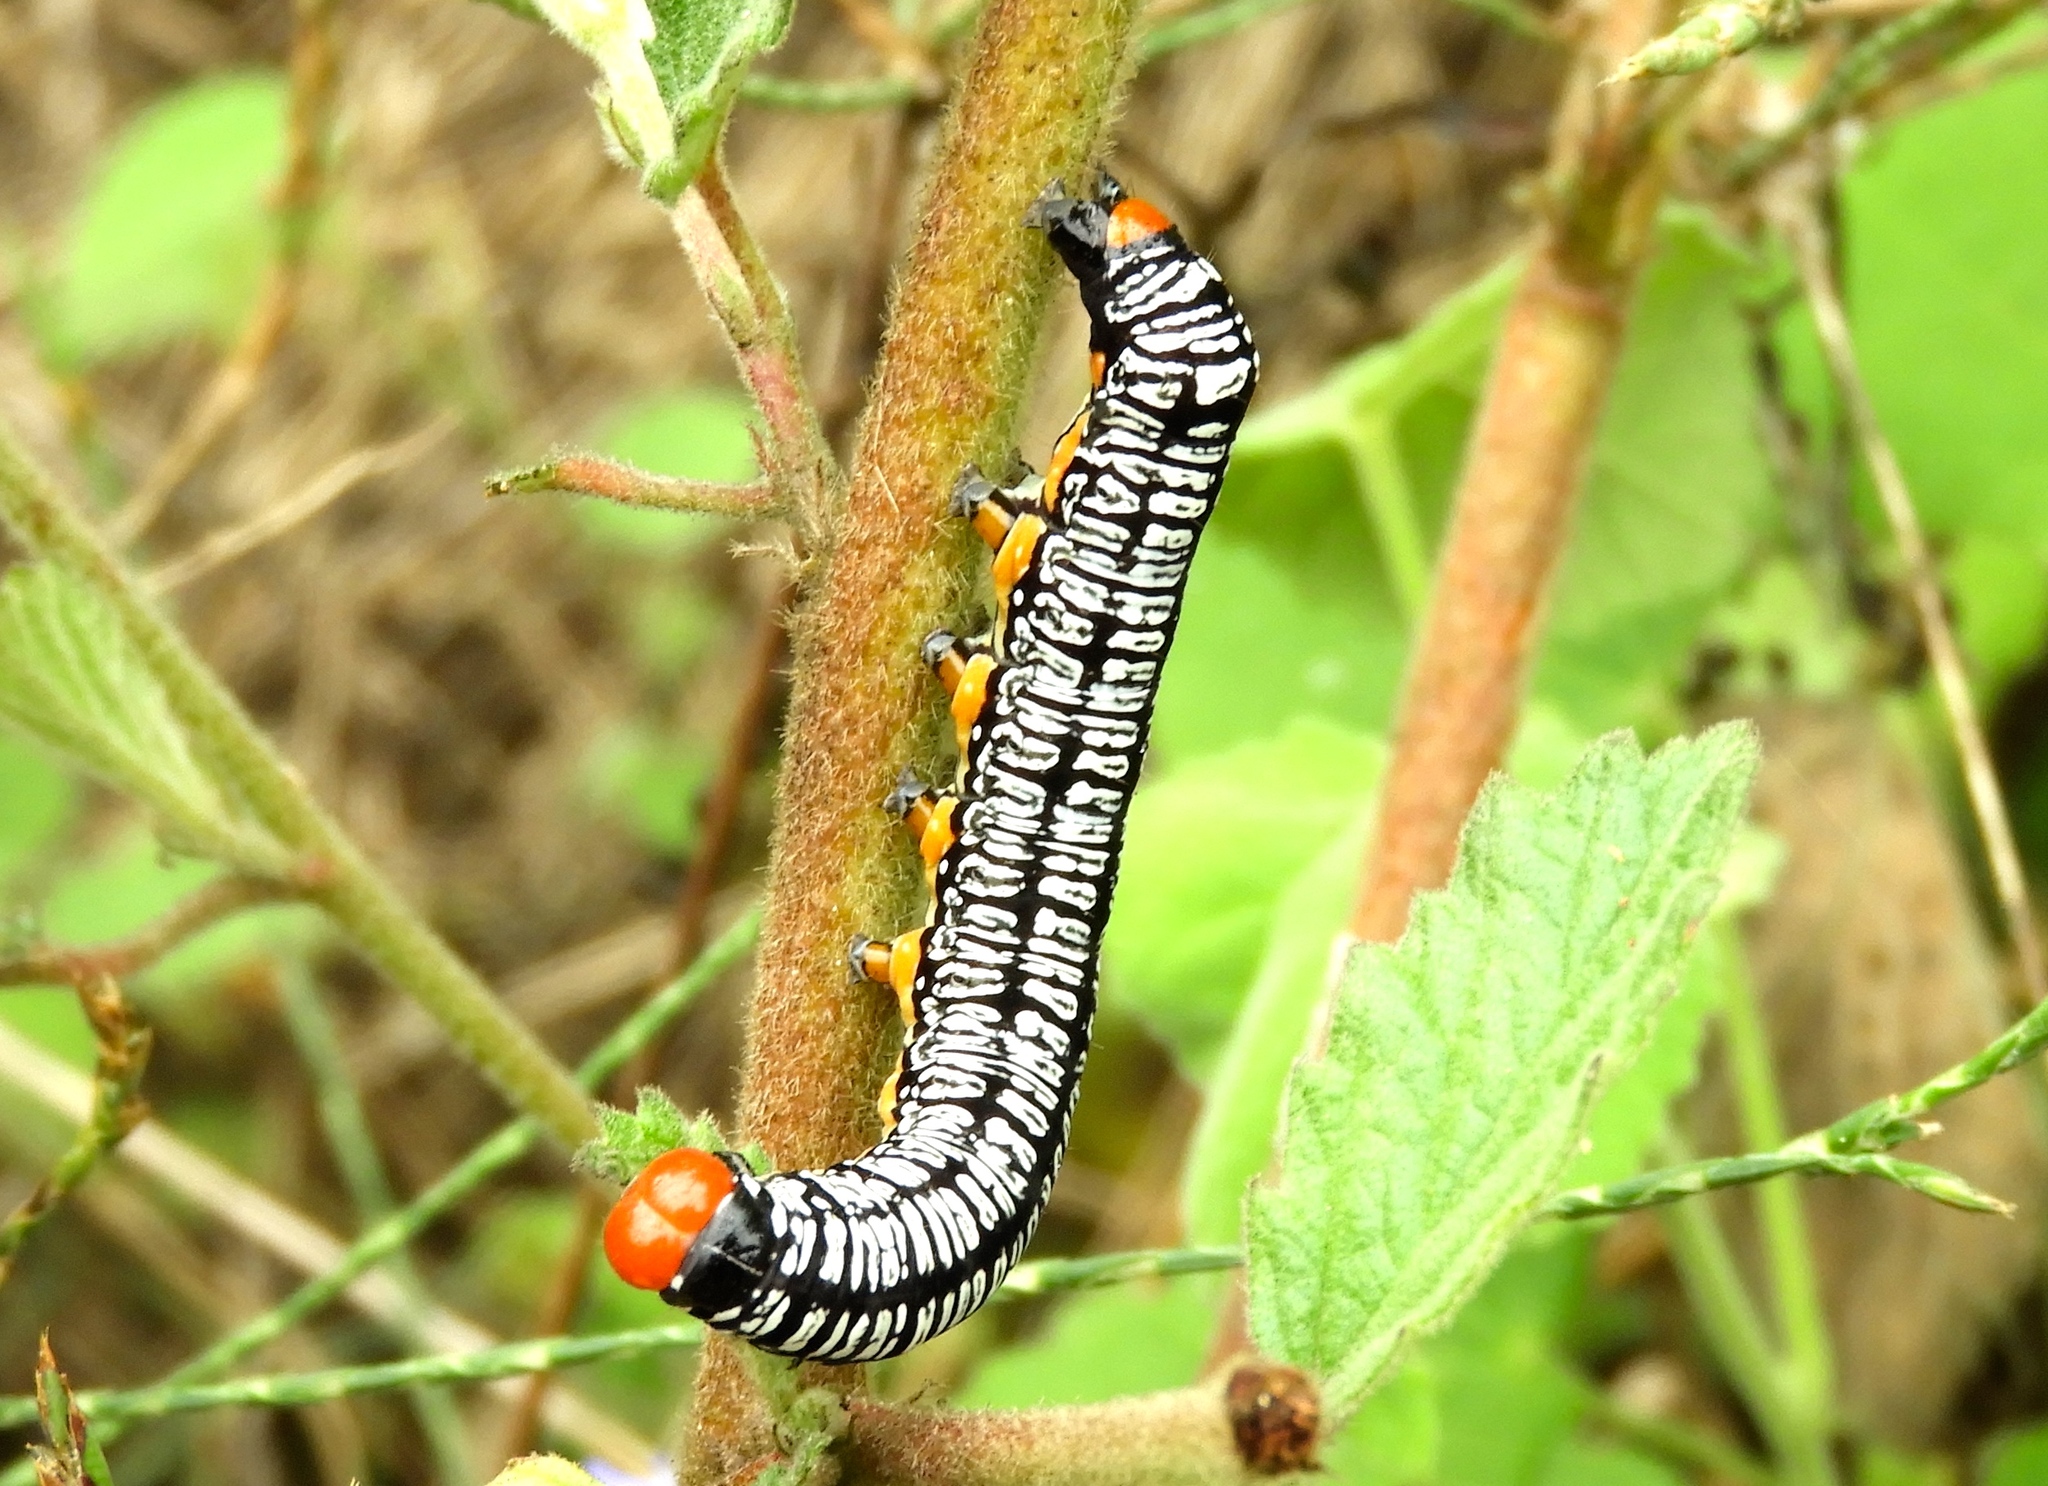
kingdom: Animalia
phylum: Arthropoda
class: Insecta
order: Lepidoptera
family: Erebidae
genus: Diphthera
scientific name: Diphthera festiva
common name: Hieroglyphic moth
